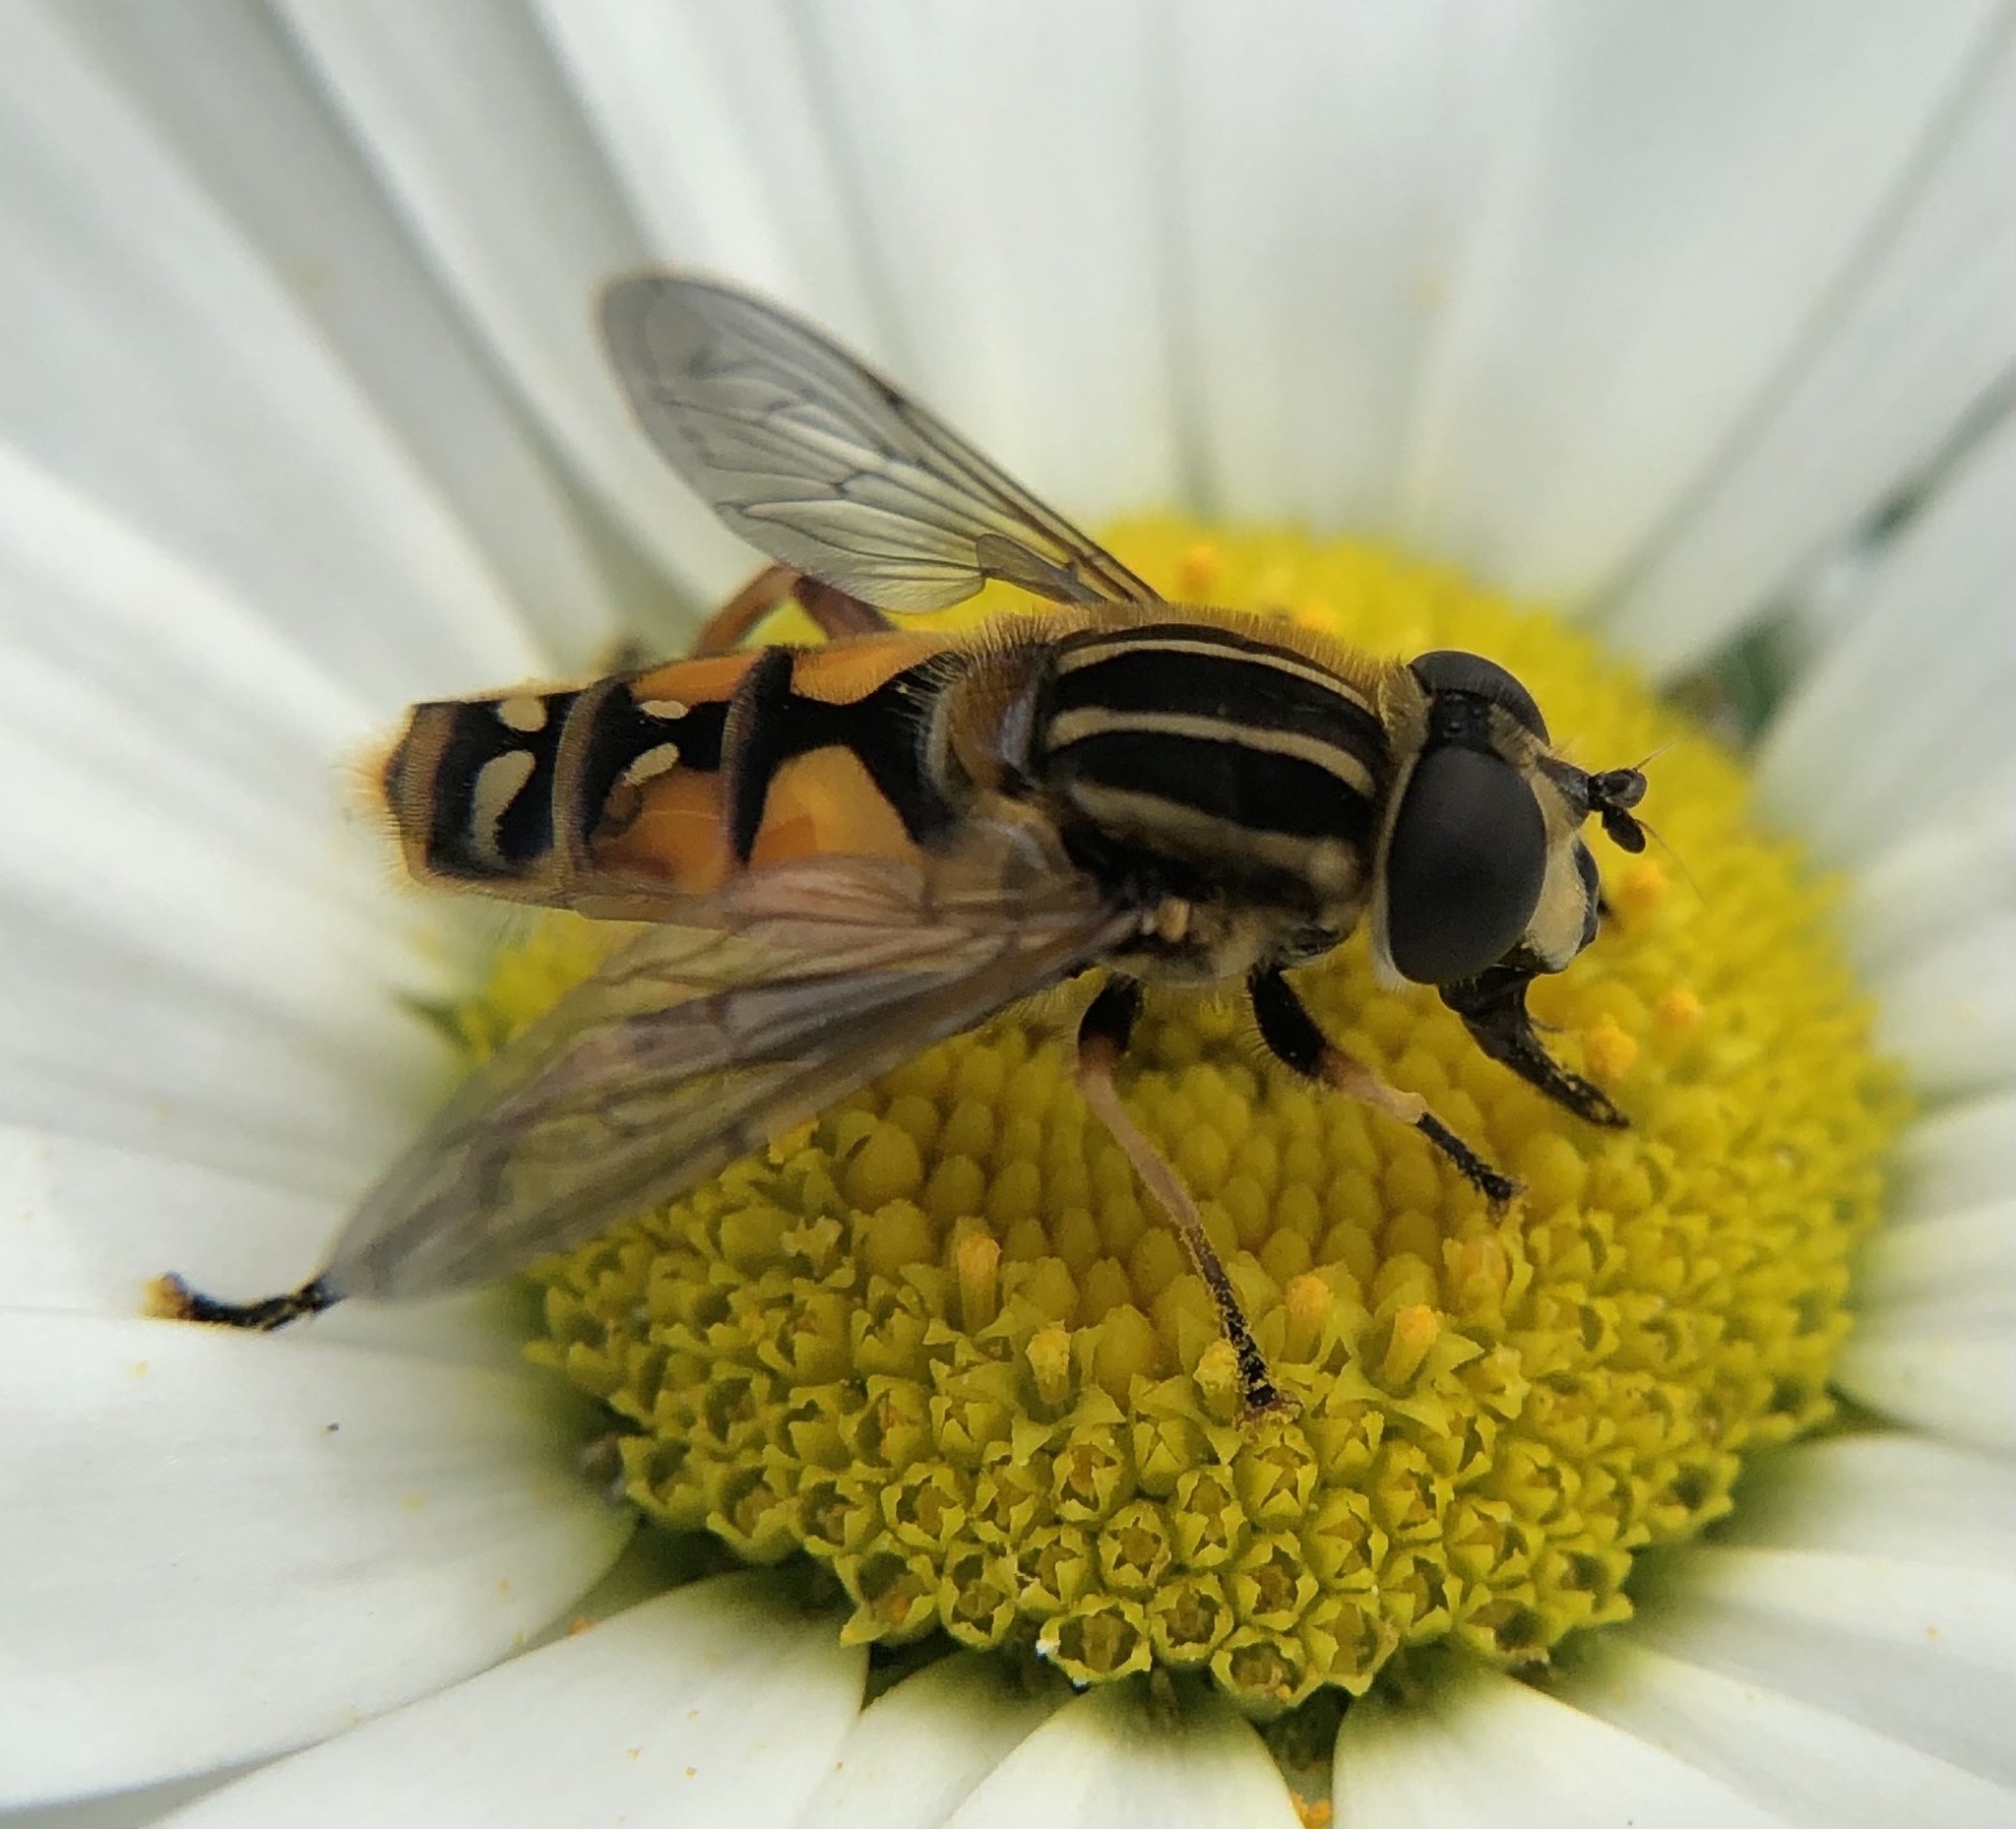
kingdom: Animalia
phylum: Arthropoda
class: Insecta
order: Diptera
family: Syrphidae
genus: Helophilus
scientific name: Helophilus pendulus
